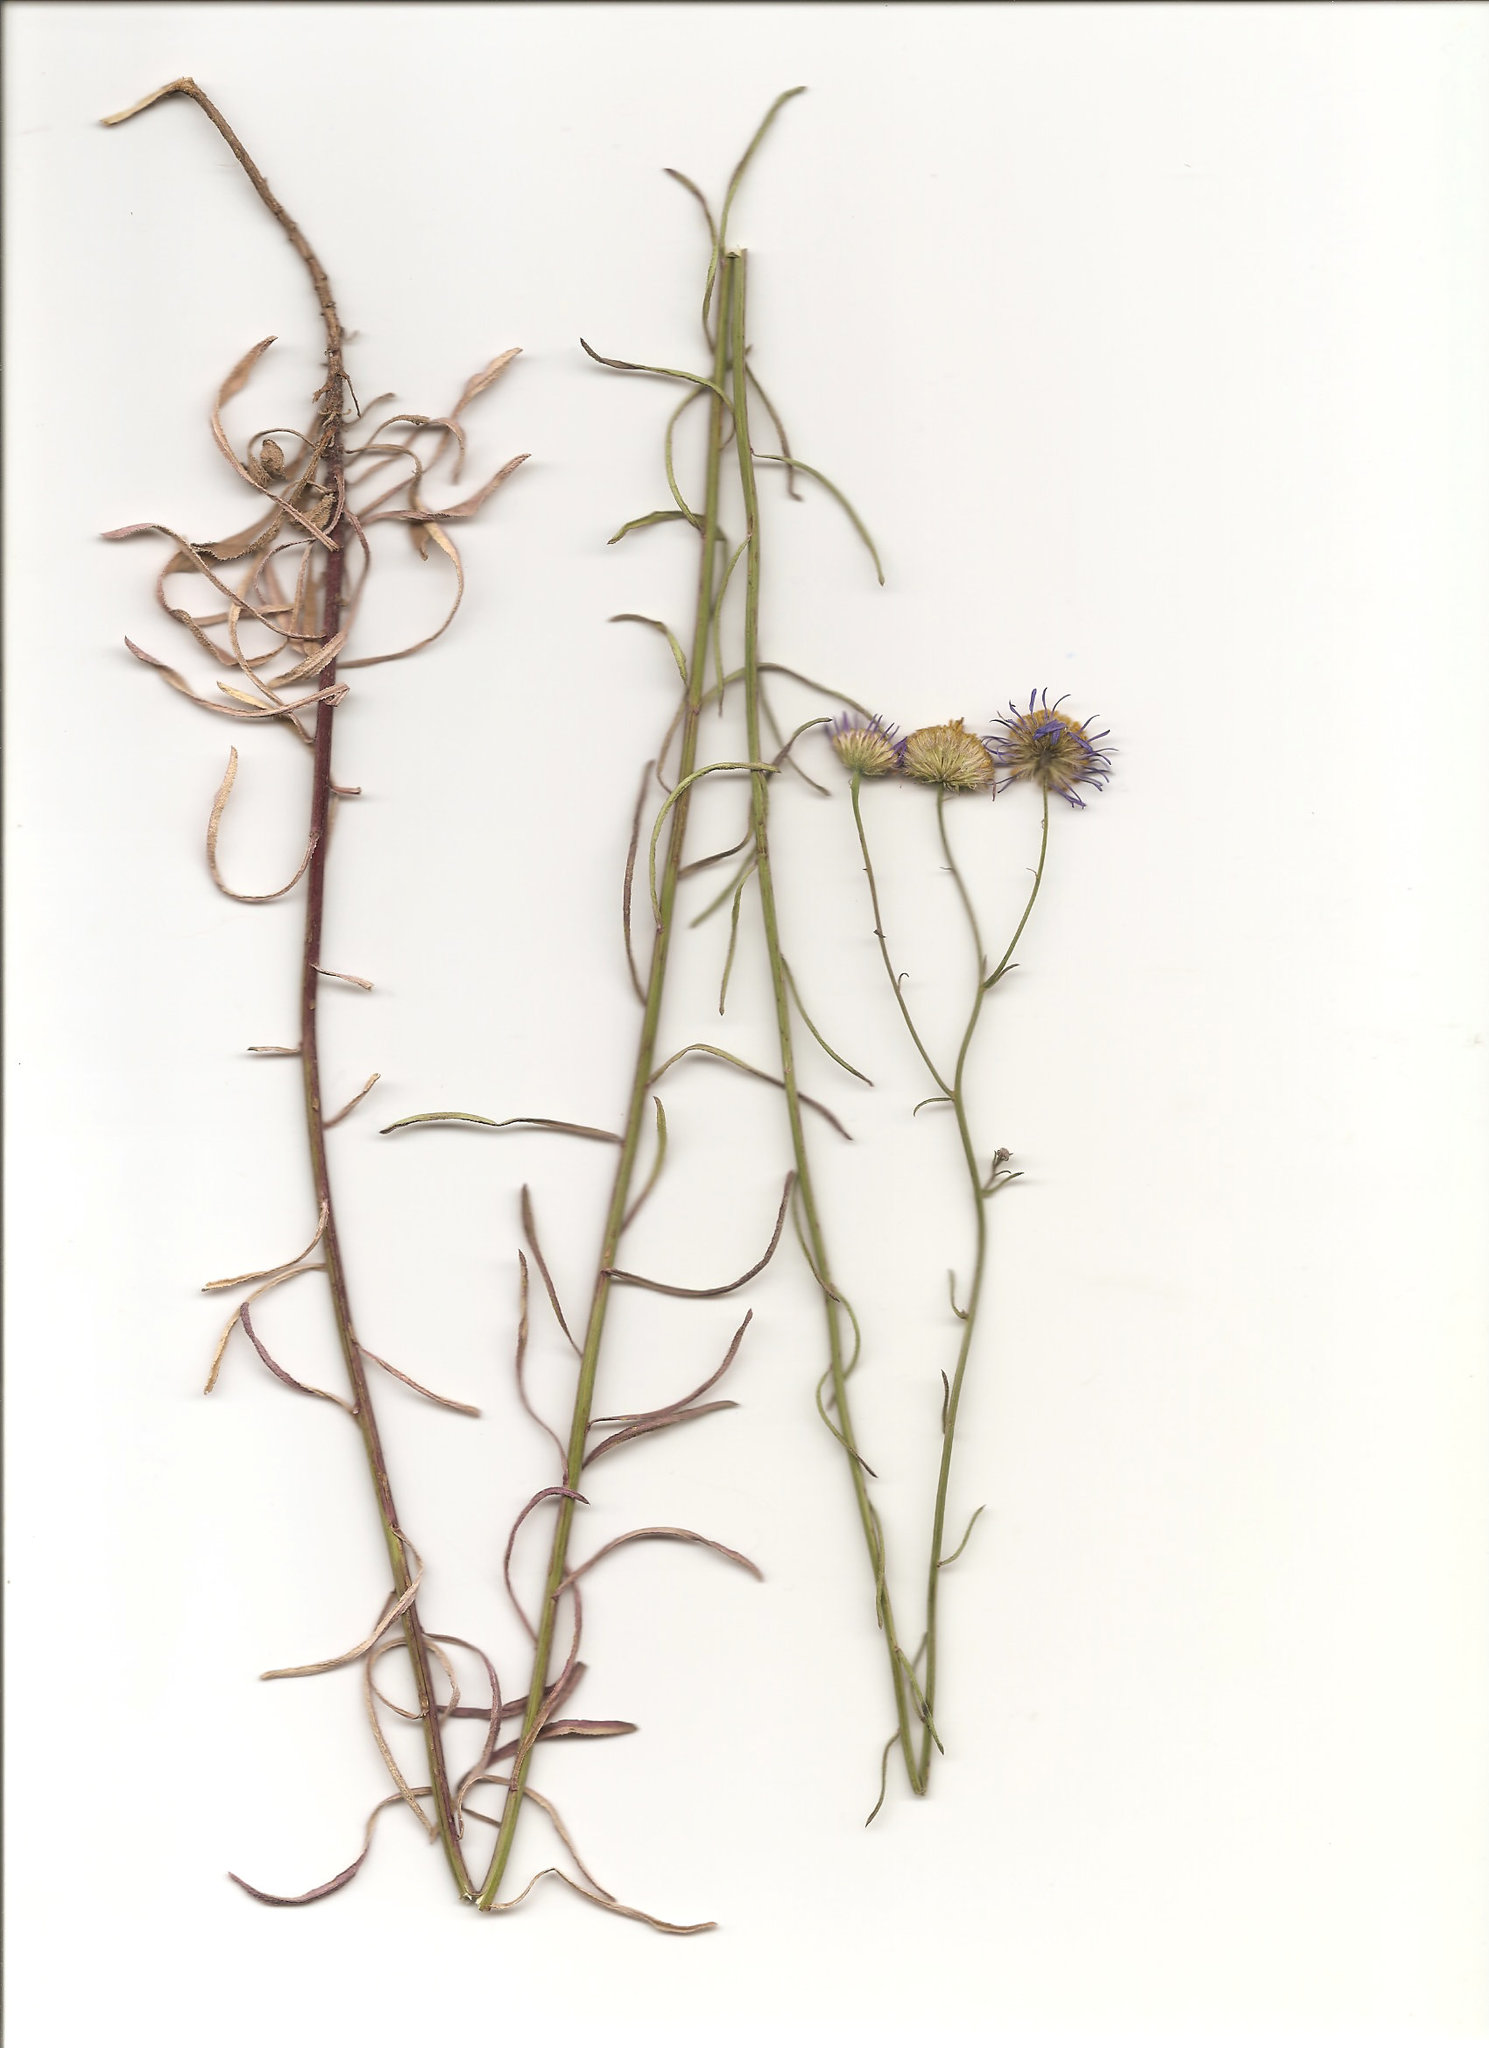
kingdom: Plantae
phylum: Tracheophyta
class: Magnoliopsida
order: Asterales
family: Asteraceae
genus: Erigeron
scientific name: Erigeron foliosus
